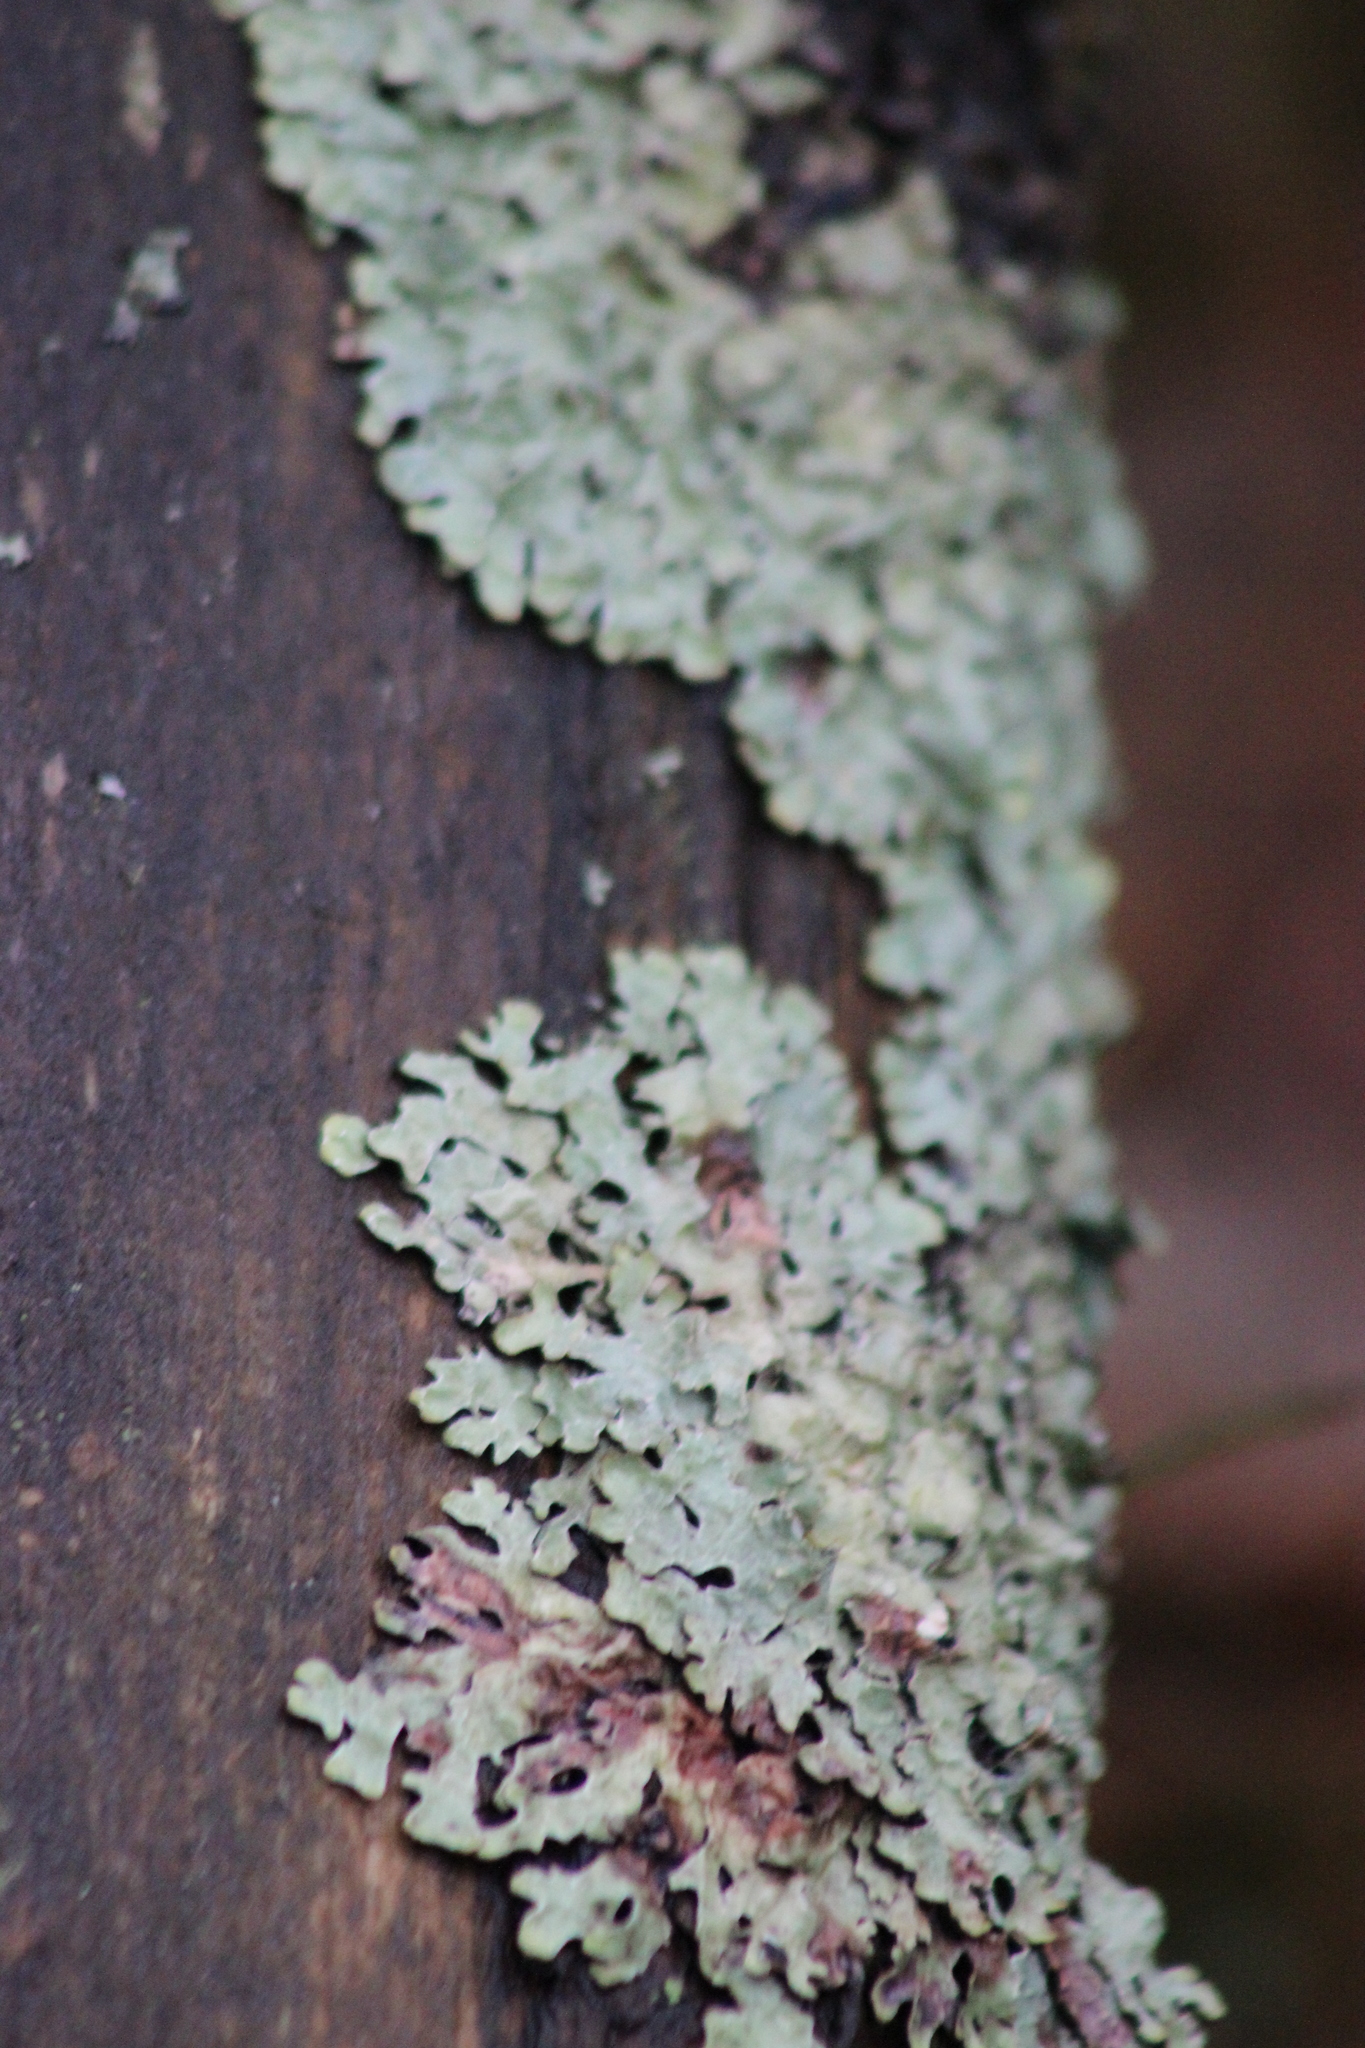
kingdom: Fungi
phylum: Ascomycota
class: Lecanoromycetes
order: Lecanorales
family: Parmeliaceae
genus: Parmelia
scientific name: Parmelia sulcata
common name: Netted shield lichen
